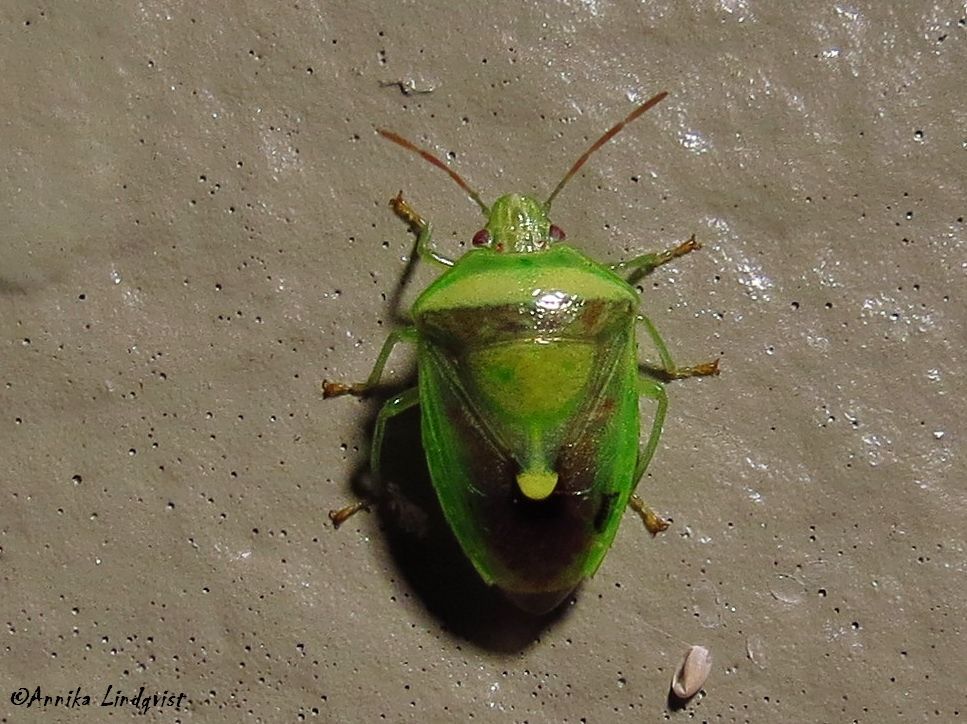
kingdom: Animalia
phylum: Arthropoda
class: Insecta
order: Hemiptera
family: Pentatomidae
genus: Banasa
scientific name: Banasa dimidiata
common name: Green burgundy stink bug
